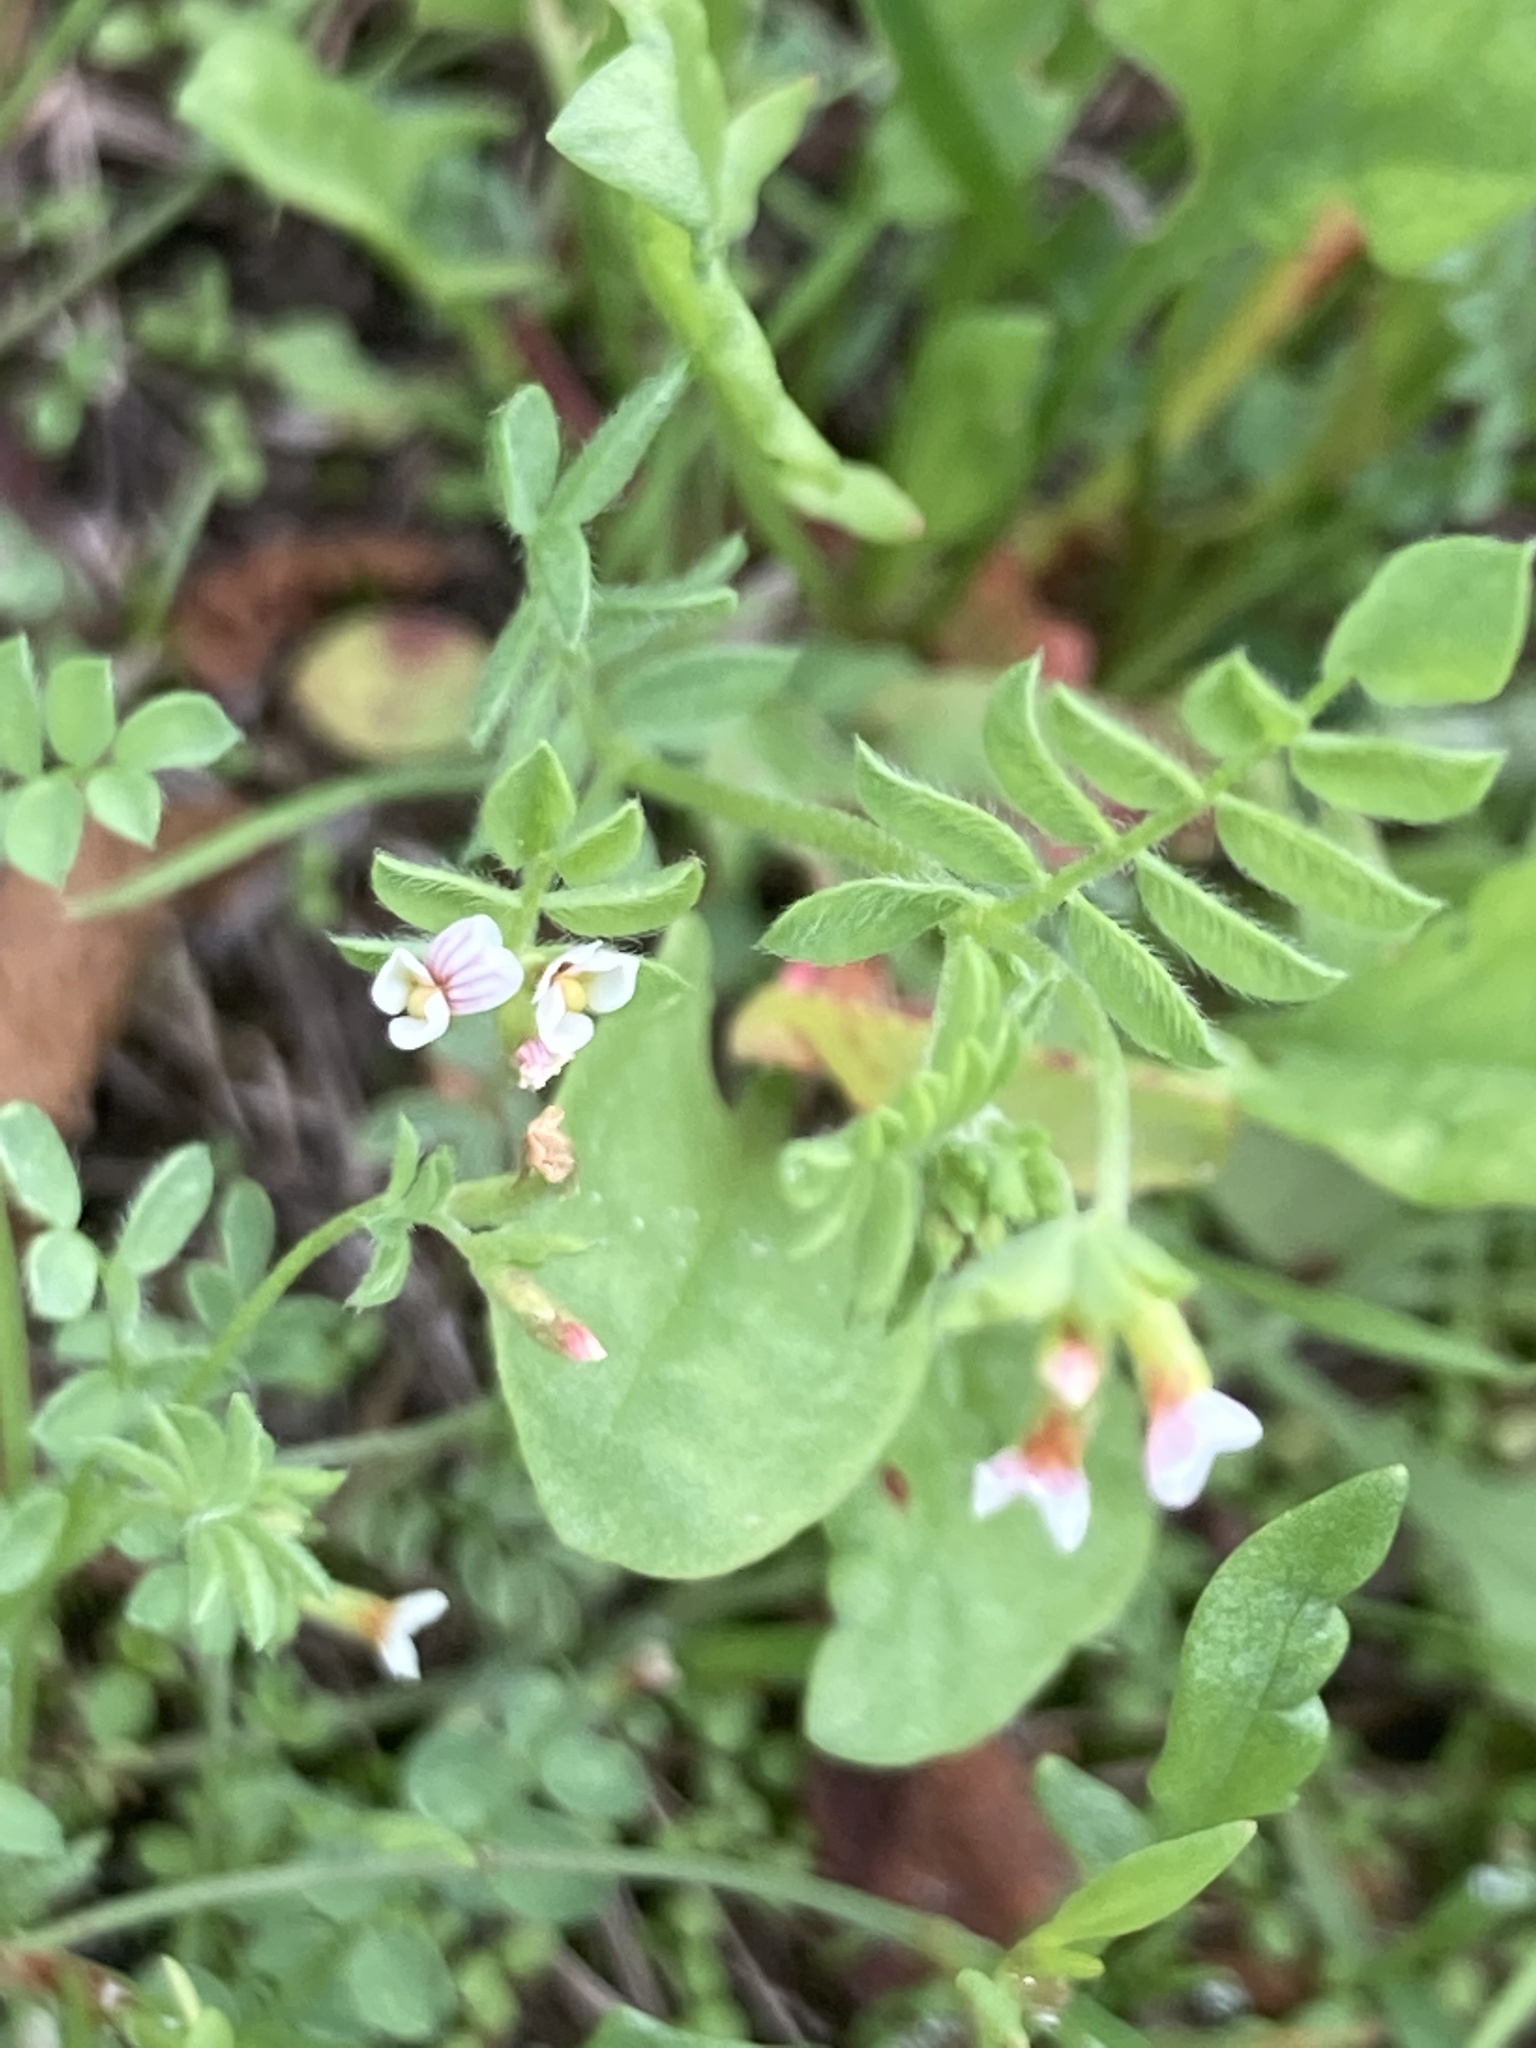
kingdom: Plantae
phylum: Tracheophyta
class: Magnoliopsida
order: Fabales
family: Fabaceae
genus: Ornithopus
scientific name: Ornithopus perpusillus
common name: Bird's-foot
